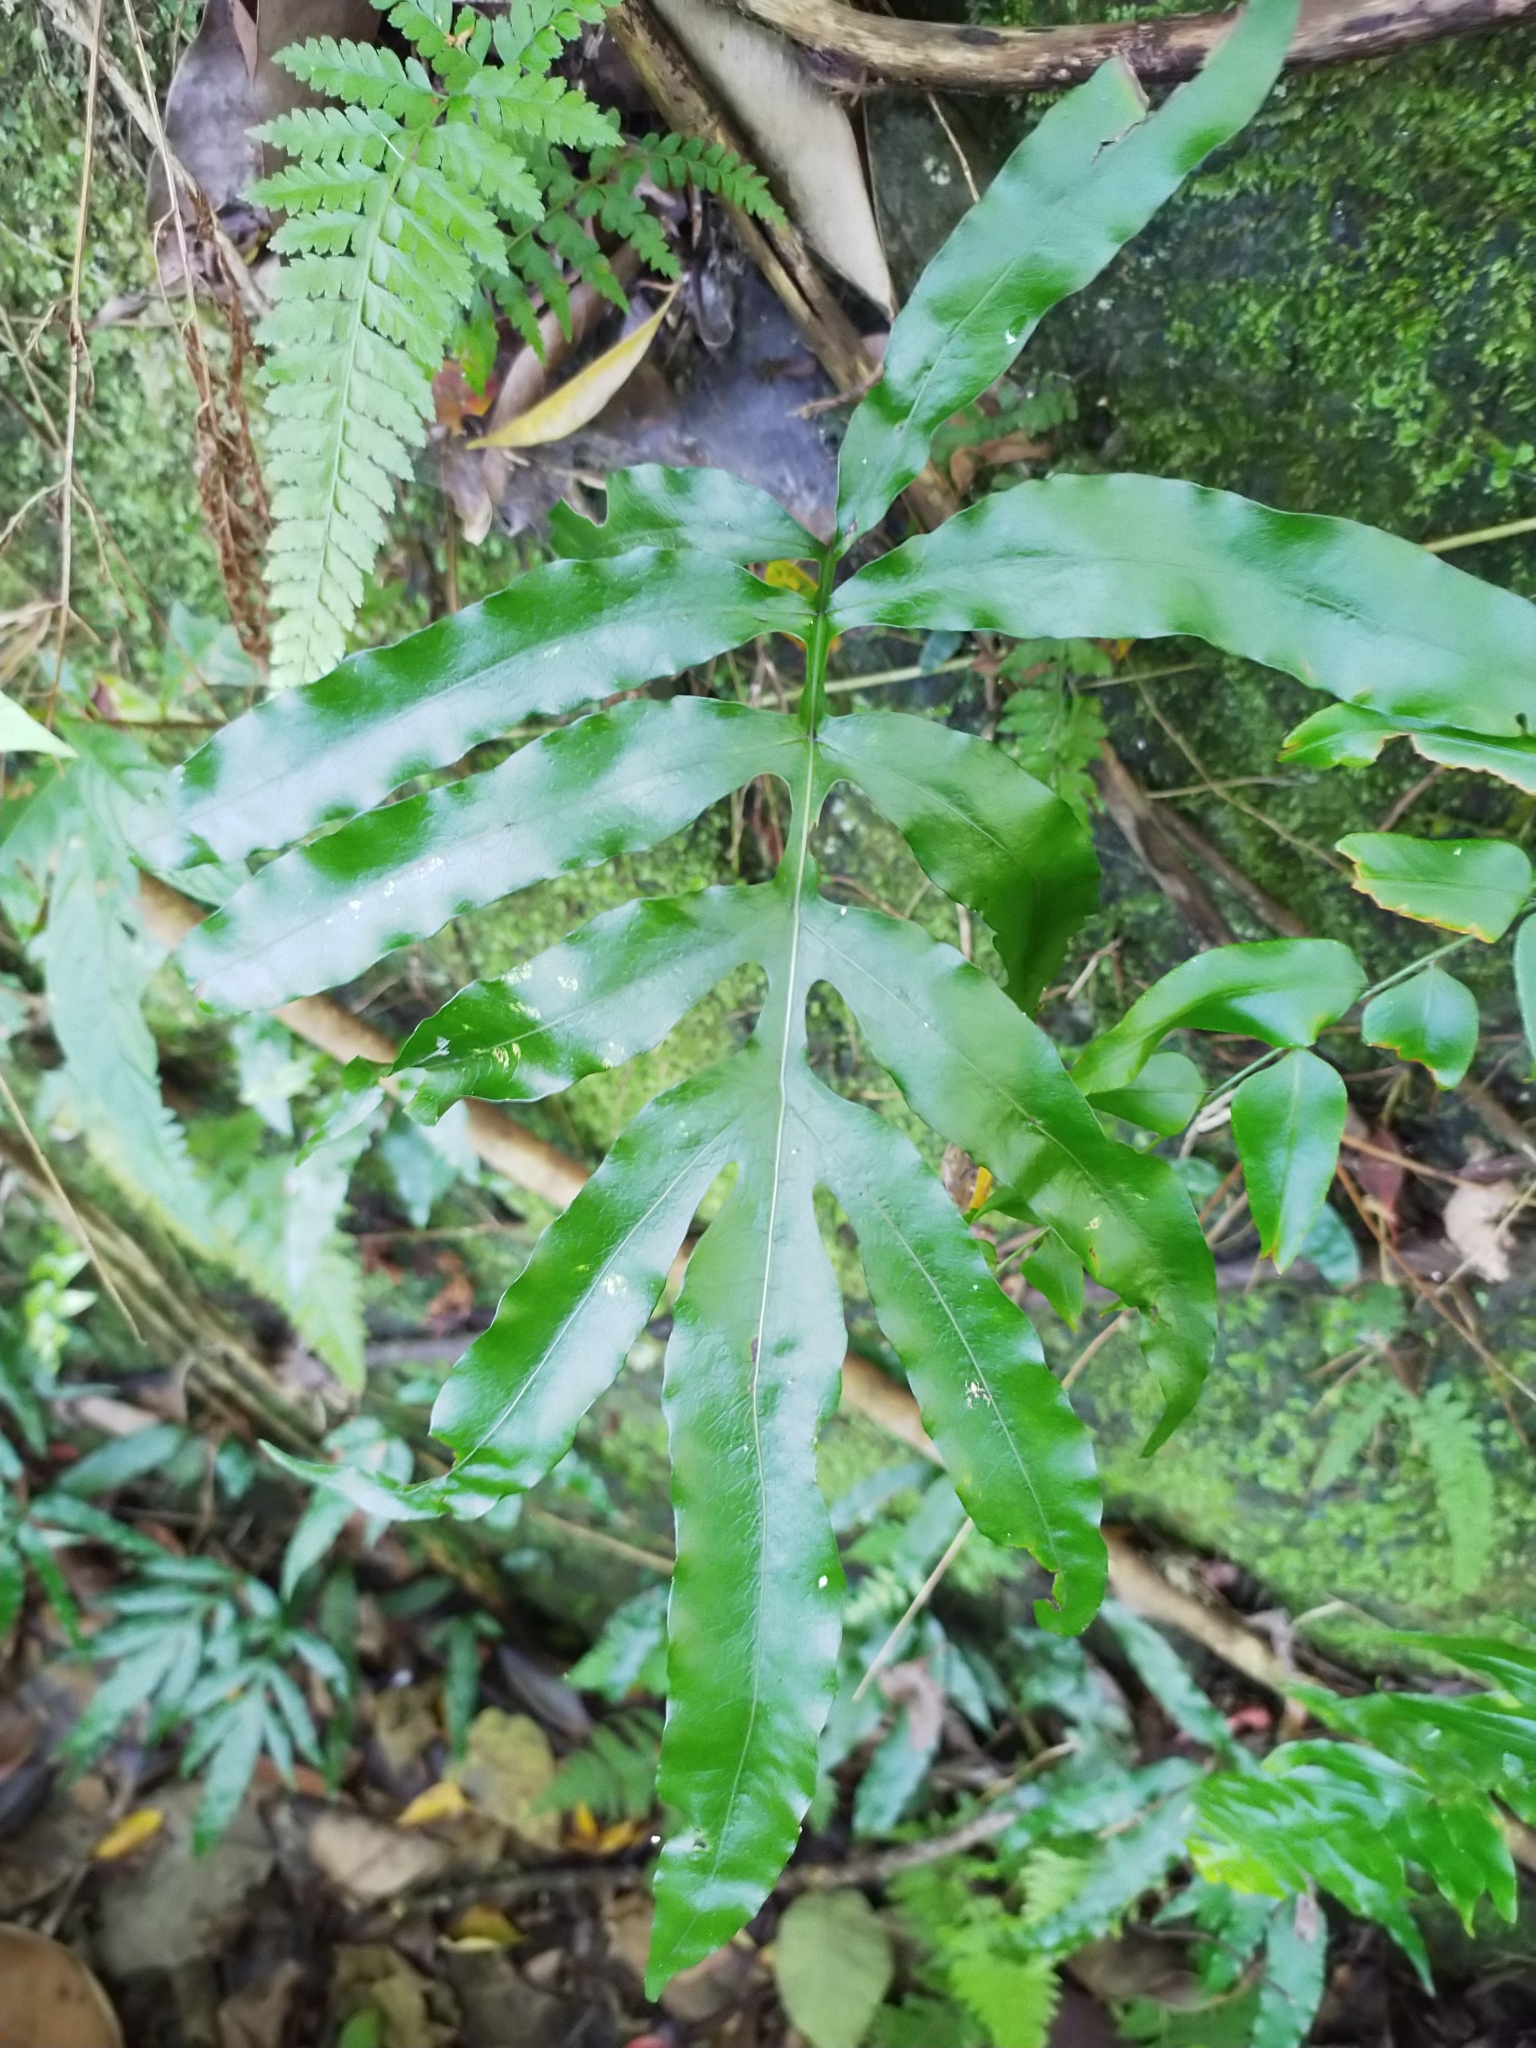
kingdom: Plantae
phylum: Tracheophyta
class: Polypodiopsida
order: Polypodiales
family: Polypodiaceae
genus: Leptochilus
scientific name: Leptochilus ellipticus
